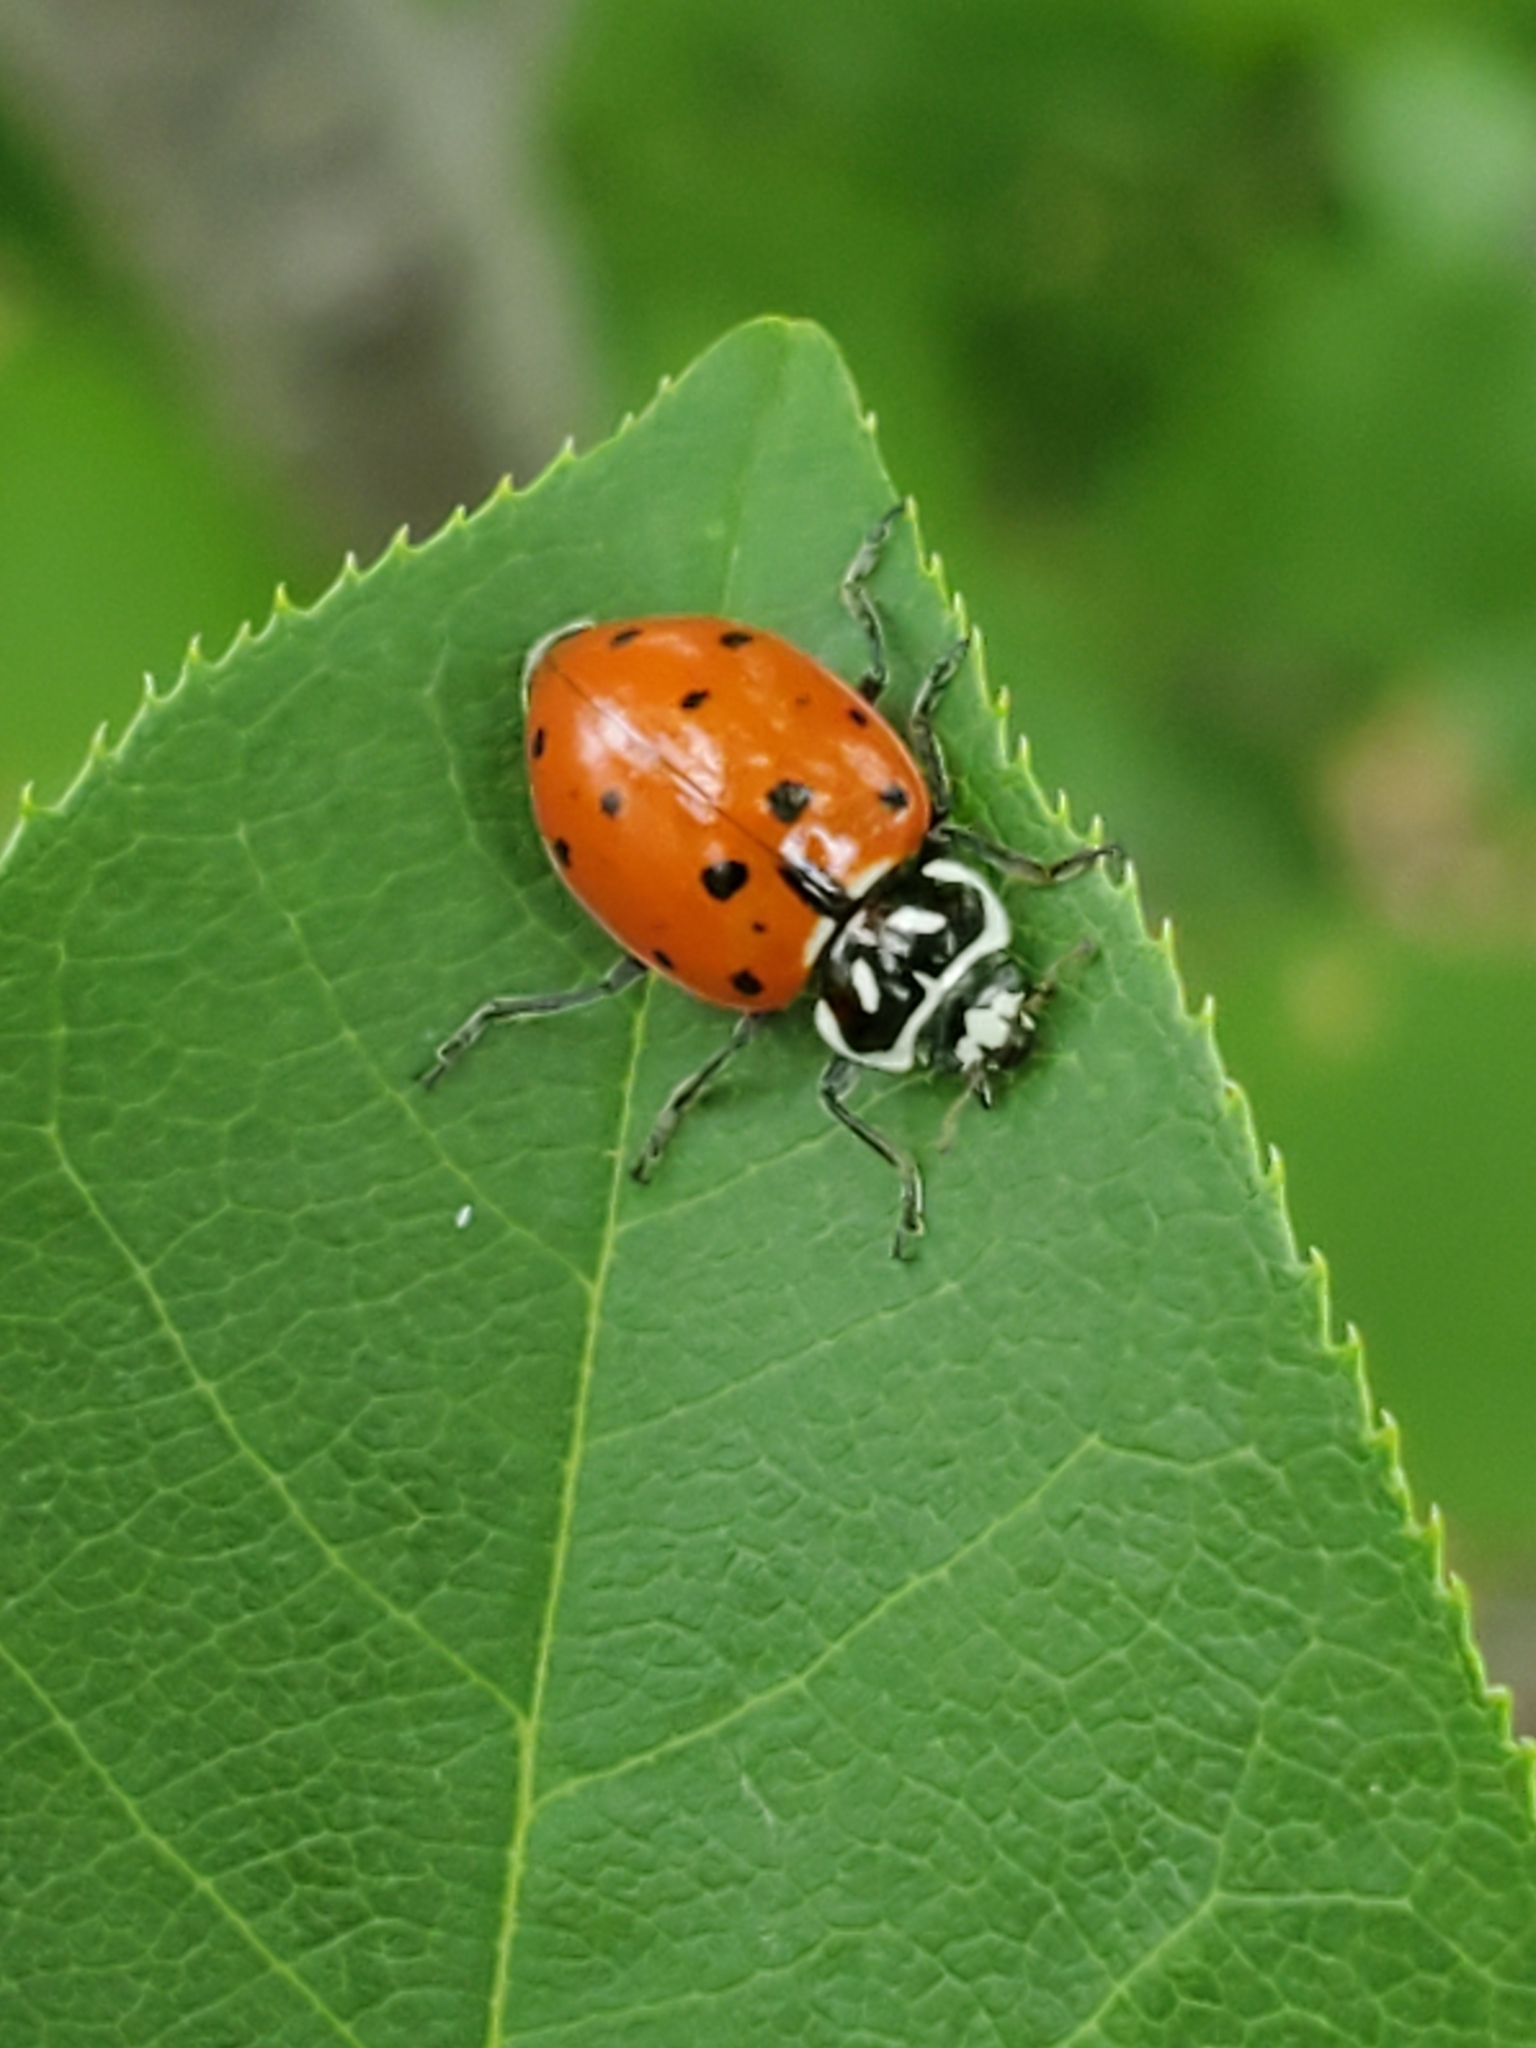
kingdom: Animalia
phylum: Arthropoda
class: Insecta
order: Coleoptera
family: Coccinellidae
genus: Hippodamia
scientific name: Hippodamia convergens
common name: Convergent lady beetle
